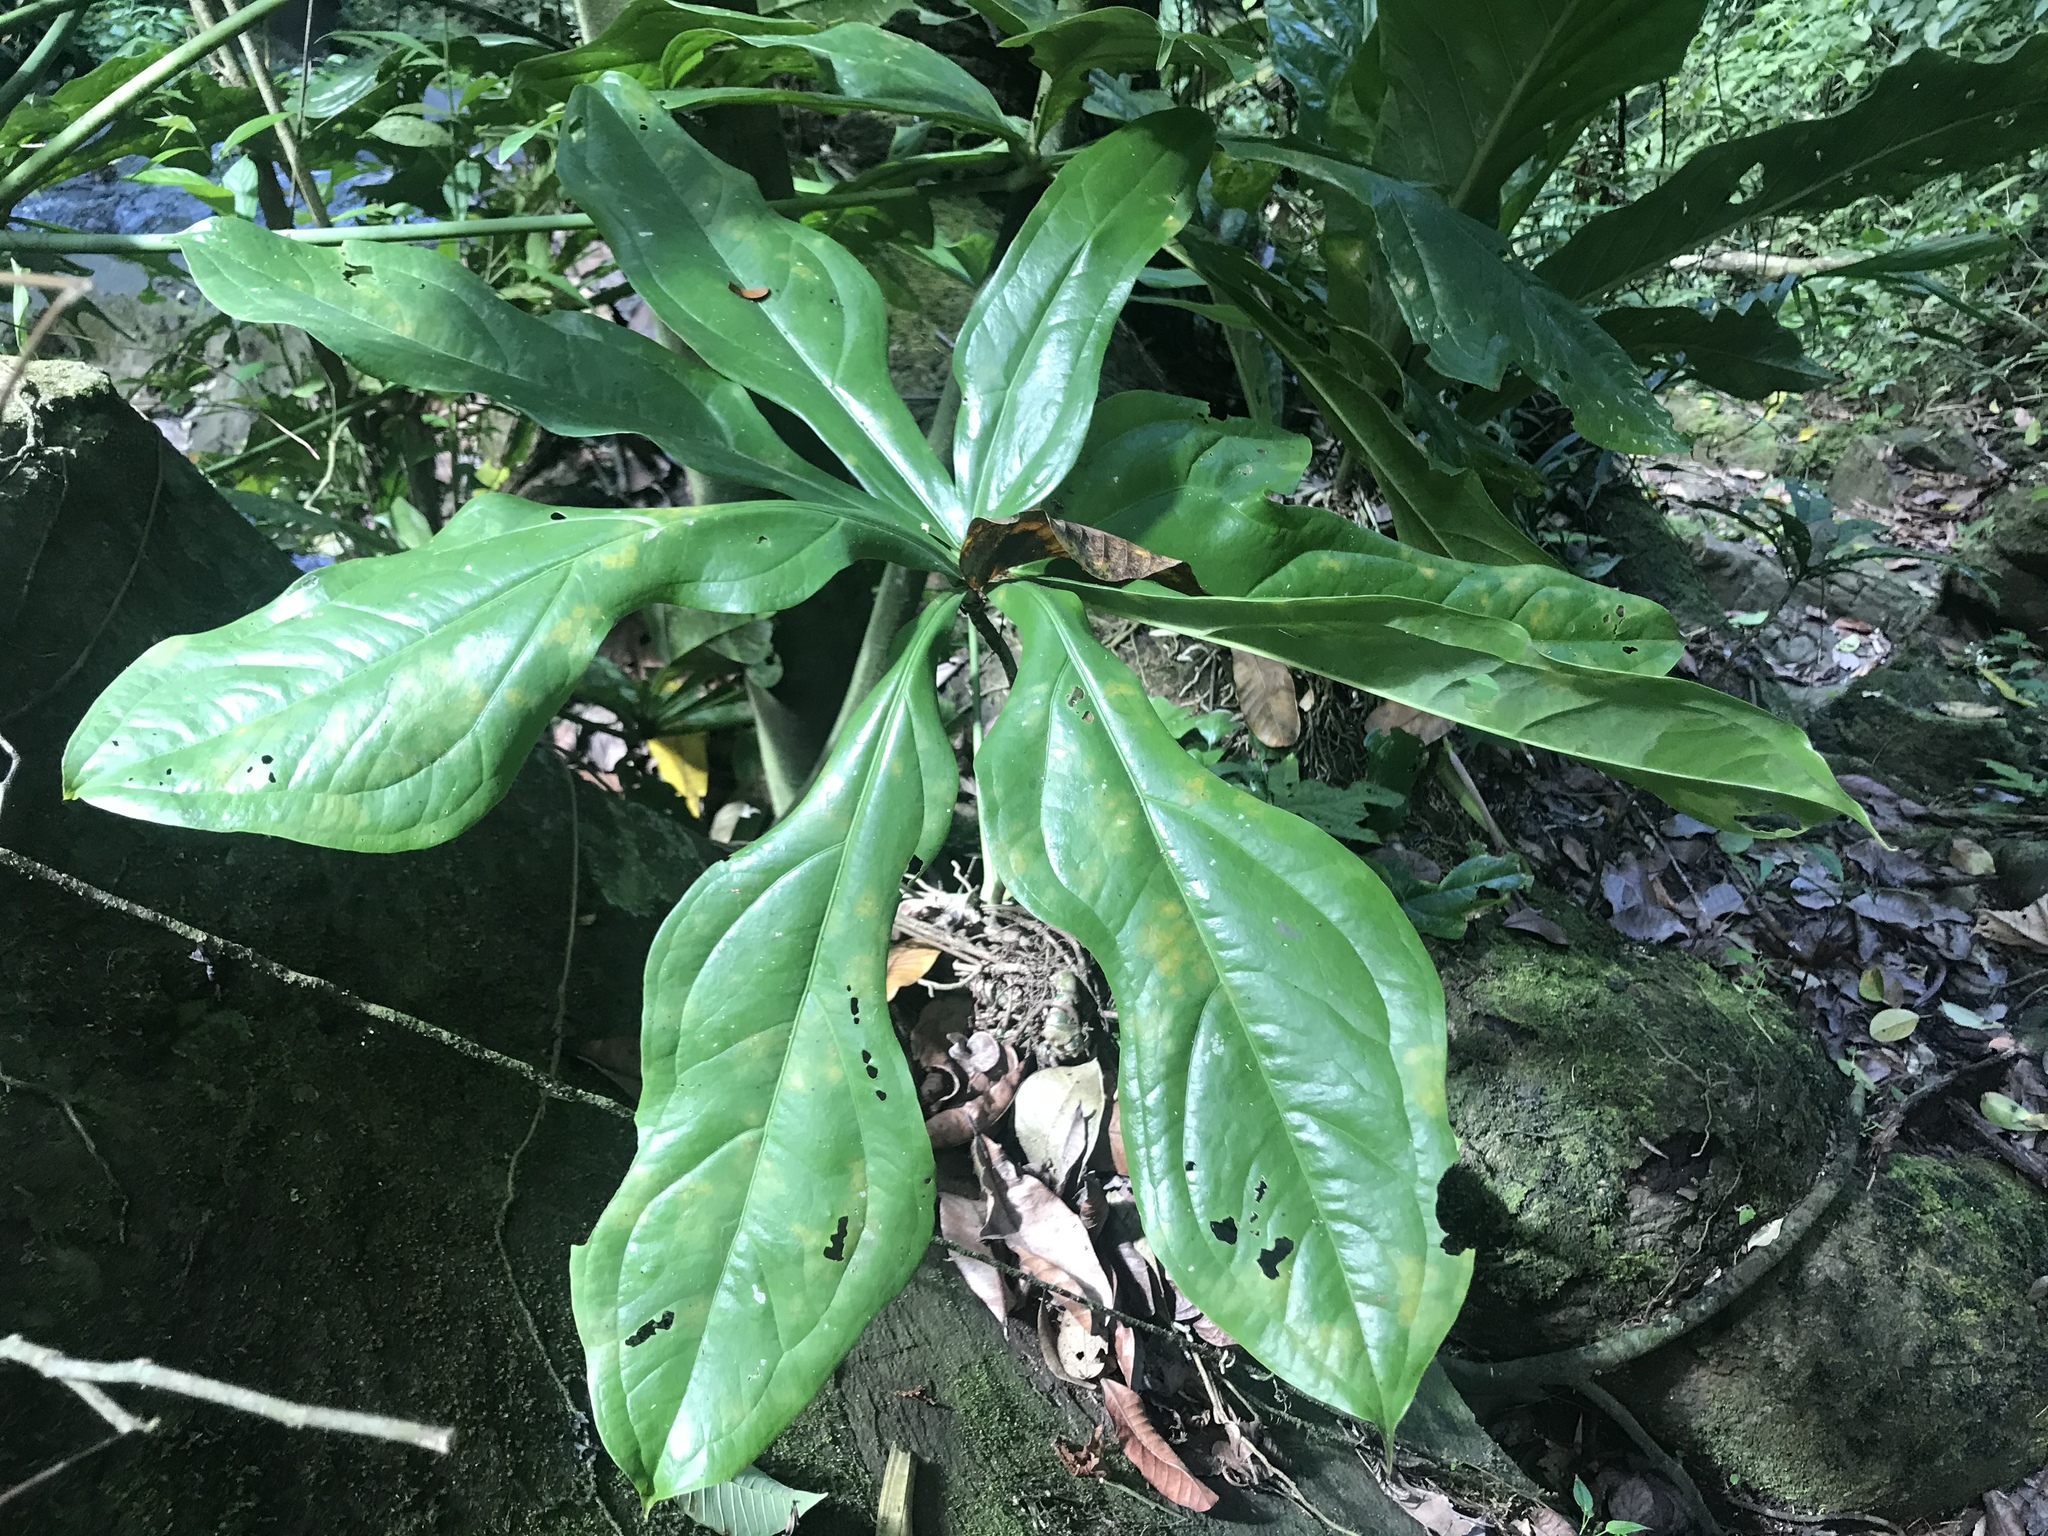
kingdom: Plantae
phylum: Tracheophyta
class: Liliopsida
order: Alismatales
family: Araceae
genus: Anthurium
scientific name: Anthurium clavigerum
